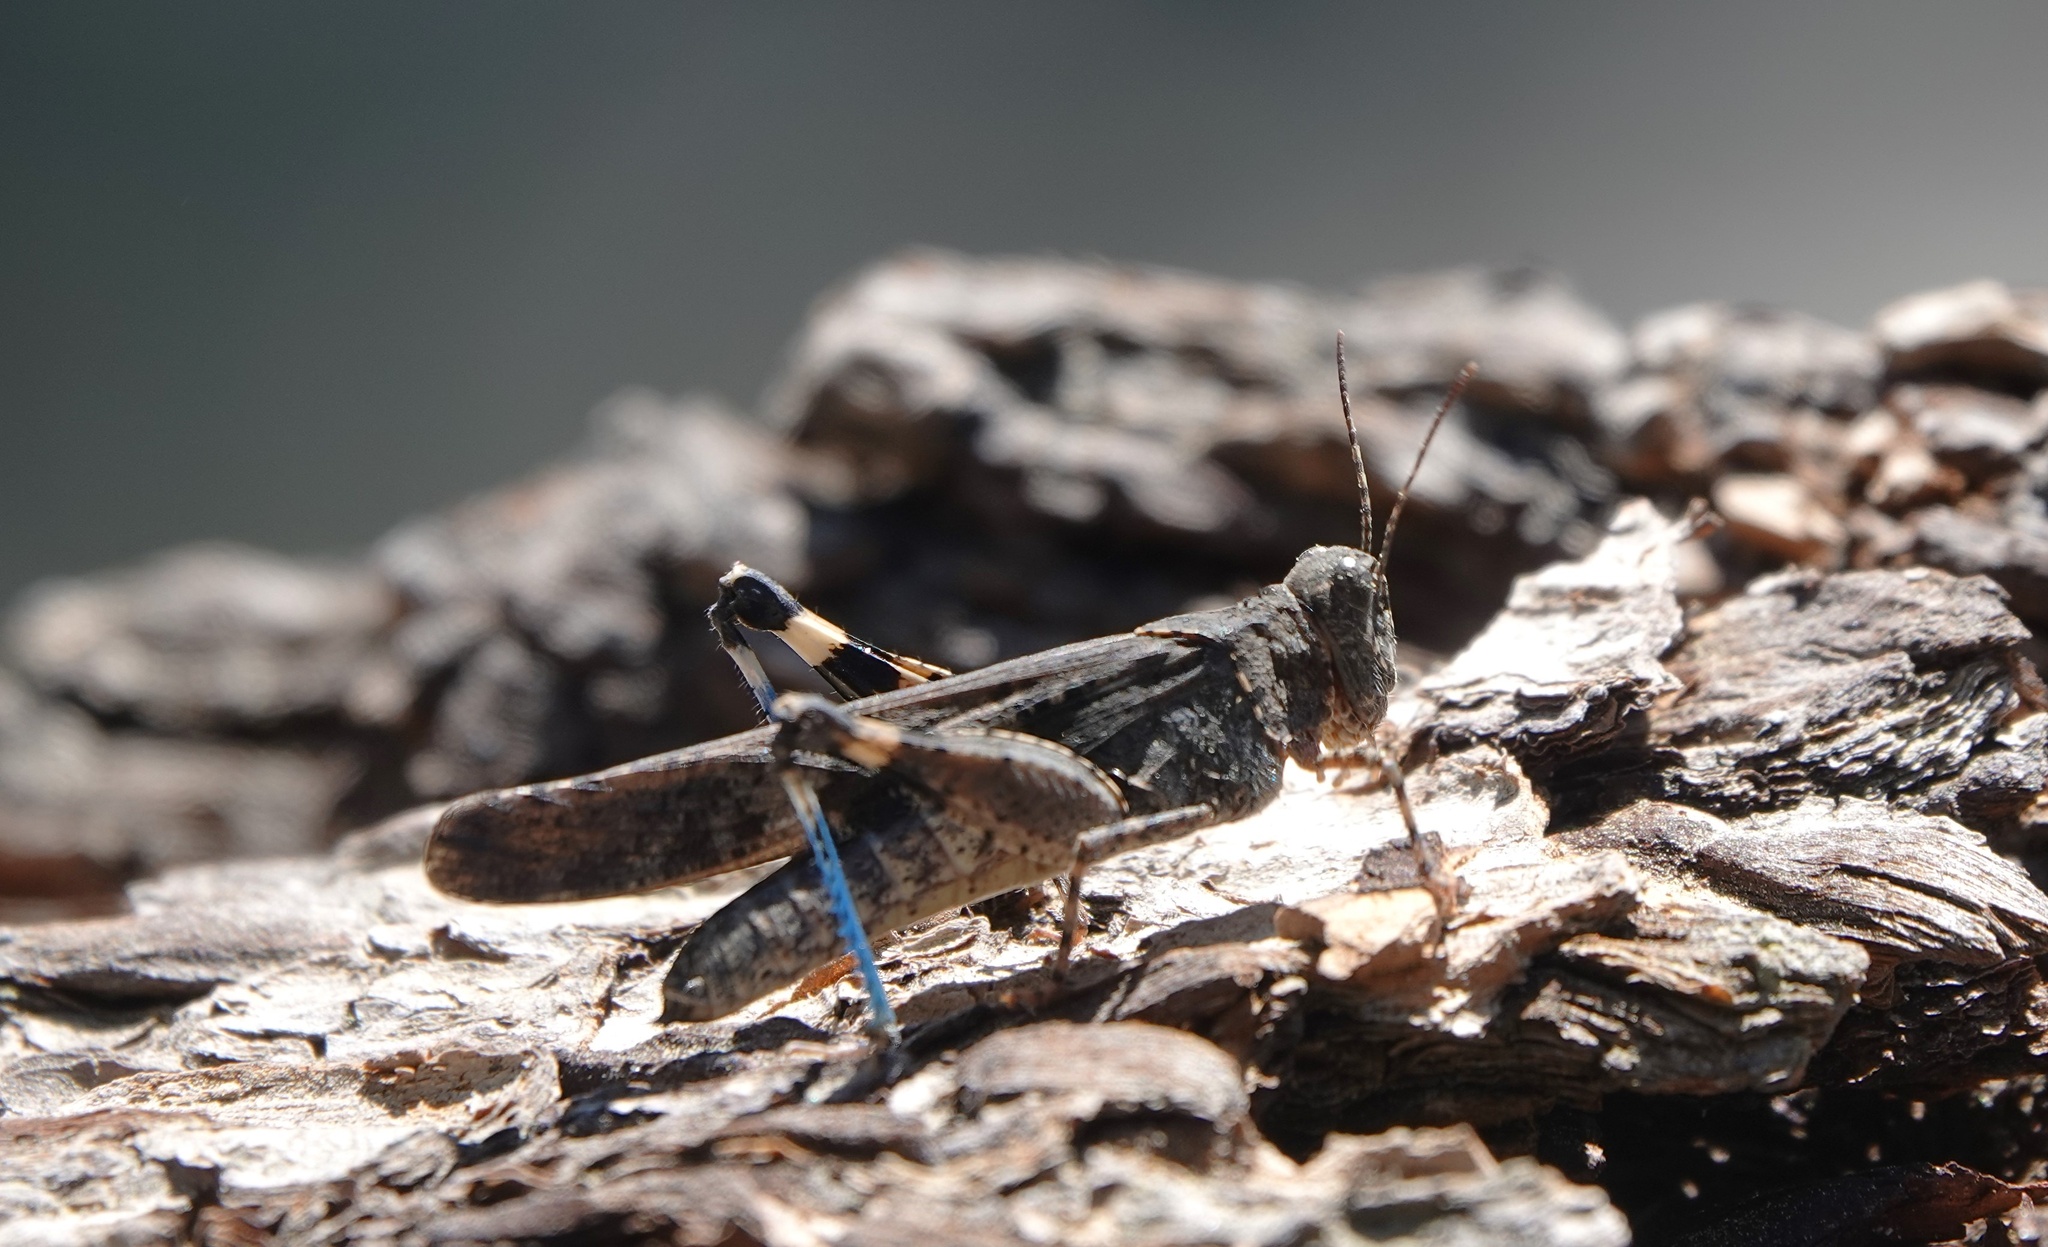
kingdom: Animalia
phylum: Arthropoda
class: Insecta
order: Orthoptera
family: Acrididae
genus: Trimerotropis
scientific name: Trimerotropis fontana
